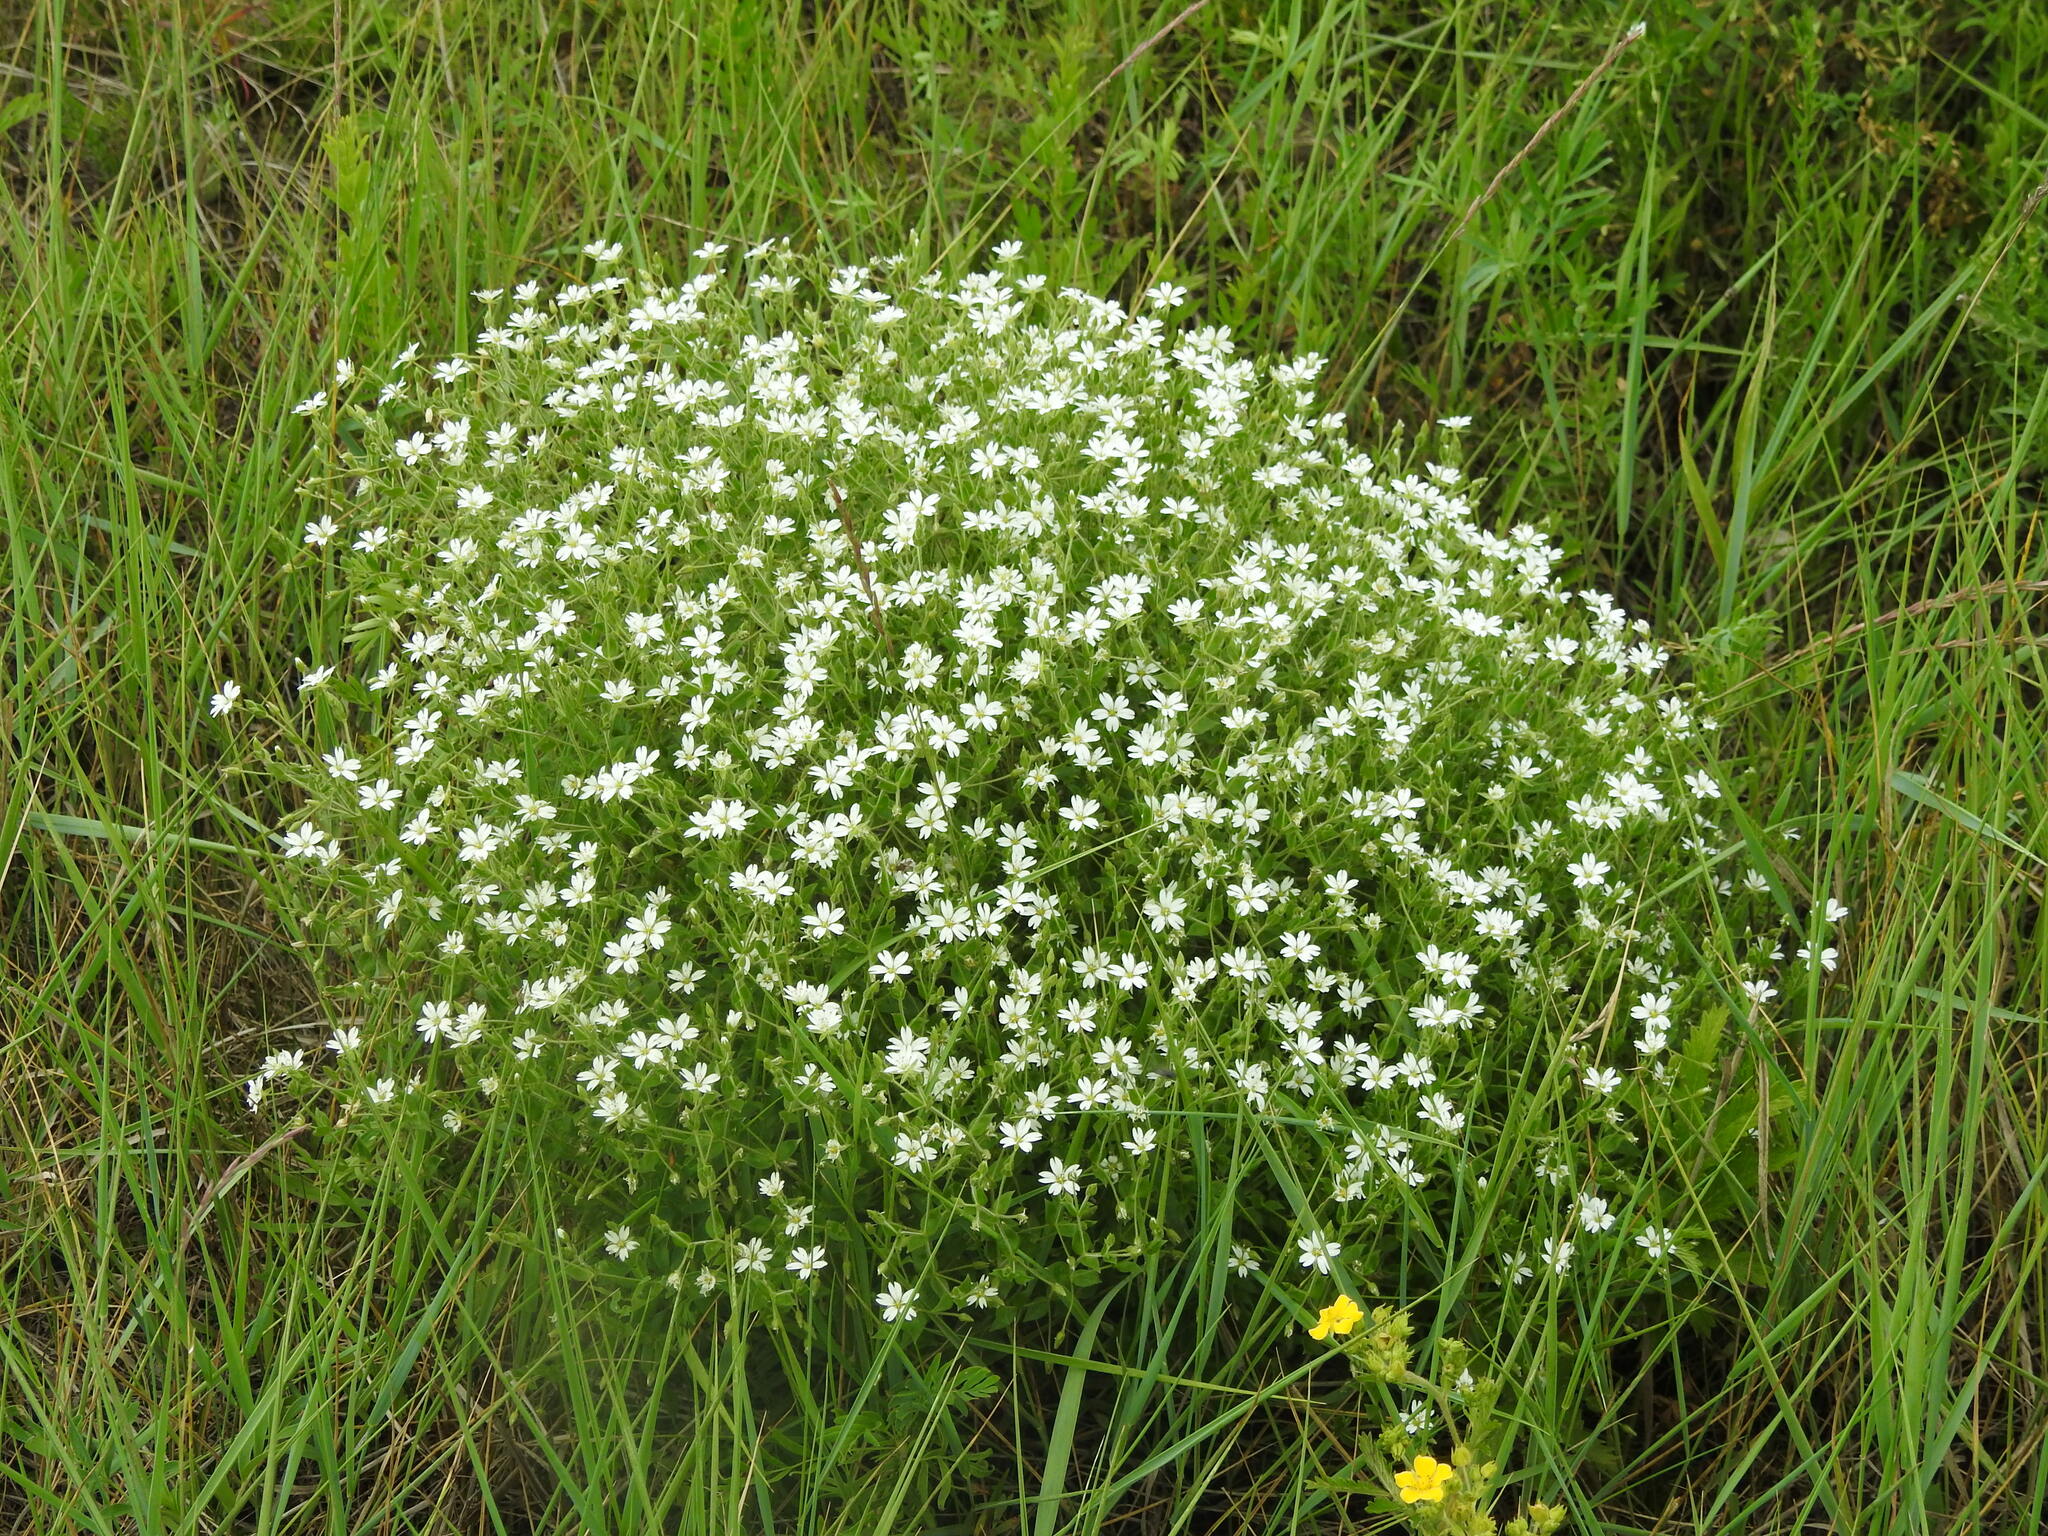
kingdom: Plantae
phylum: Tracheophyta
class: Magnoliopsida
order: Caryophyllales
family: Caryophyllaceae
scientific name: Caryophyllaceae
